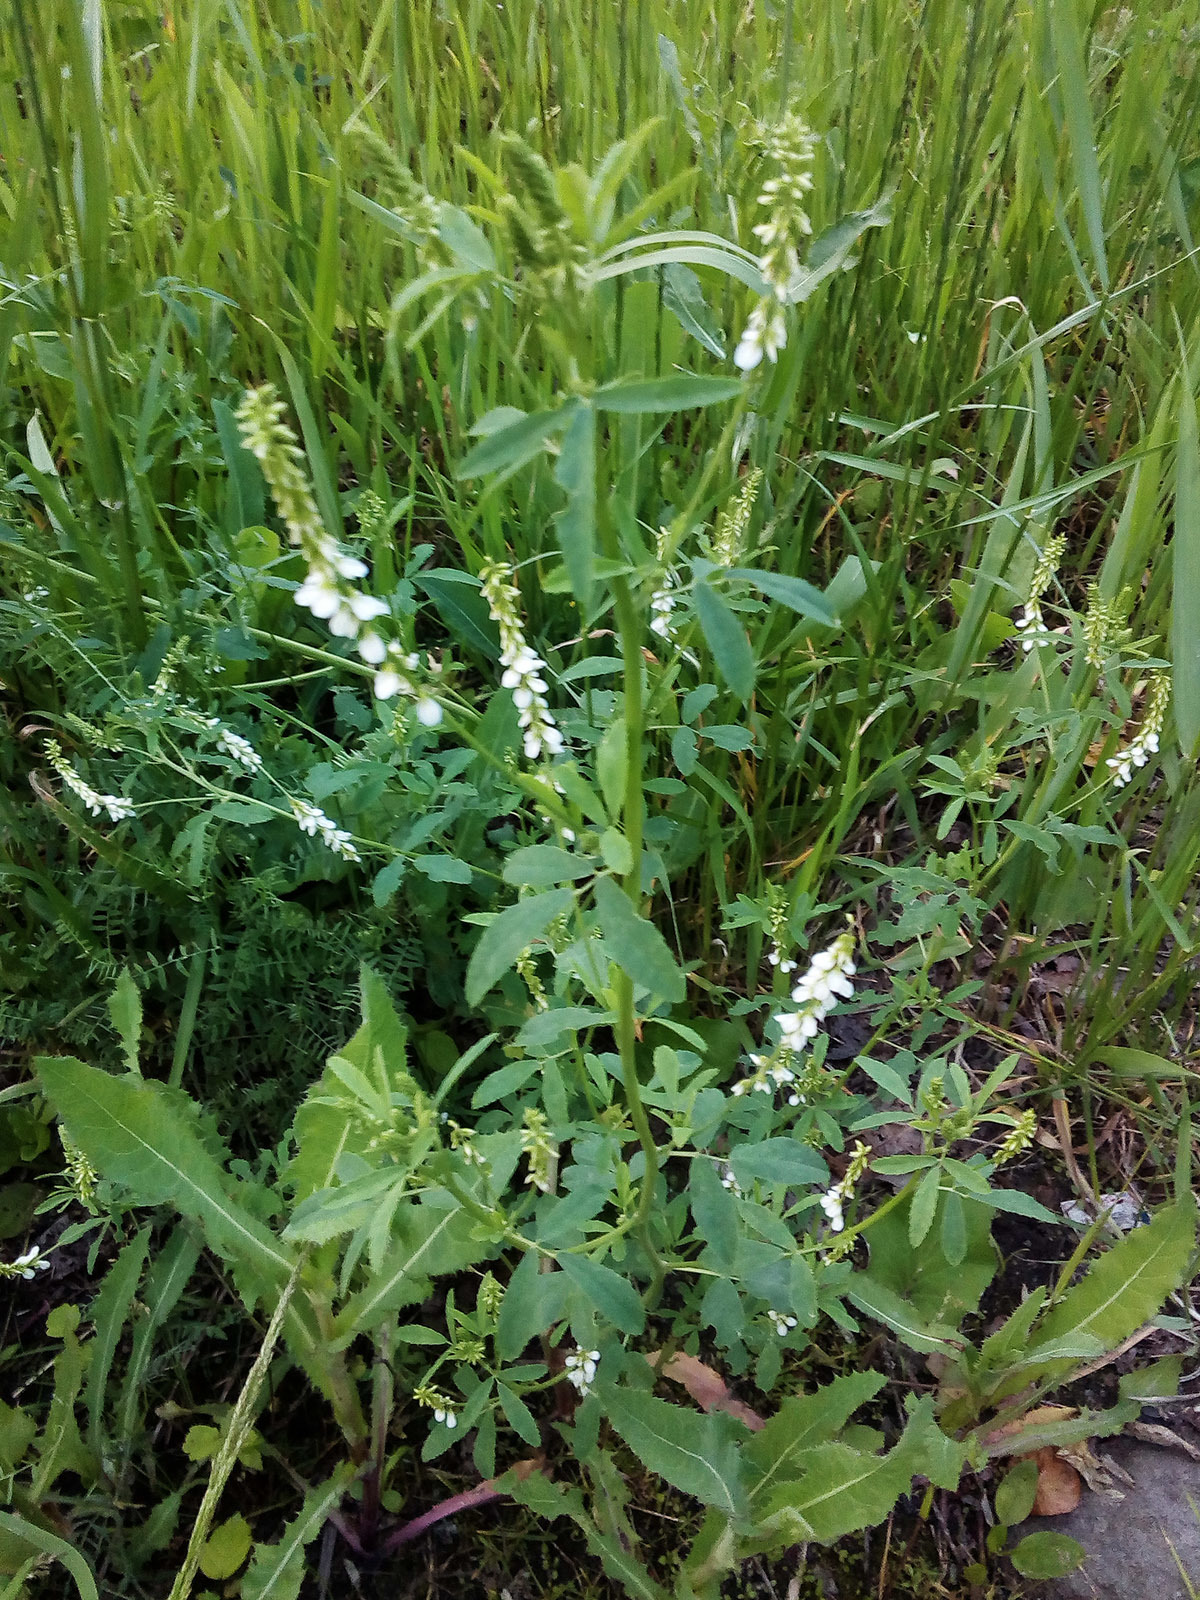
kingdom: Plantae
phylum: Tracheophyta
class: Magnoliopsida
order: Fabales
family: Fabaceae
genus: Melilotus
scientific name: Melilotus albus
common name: White melilot
